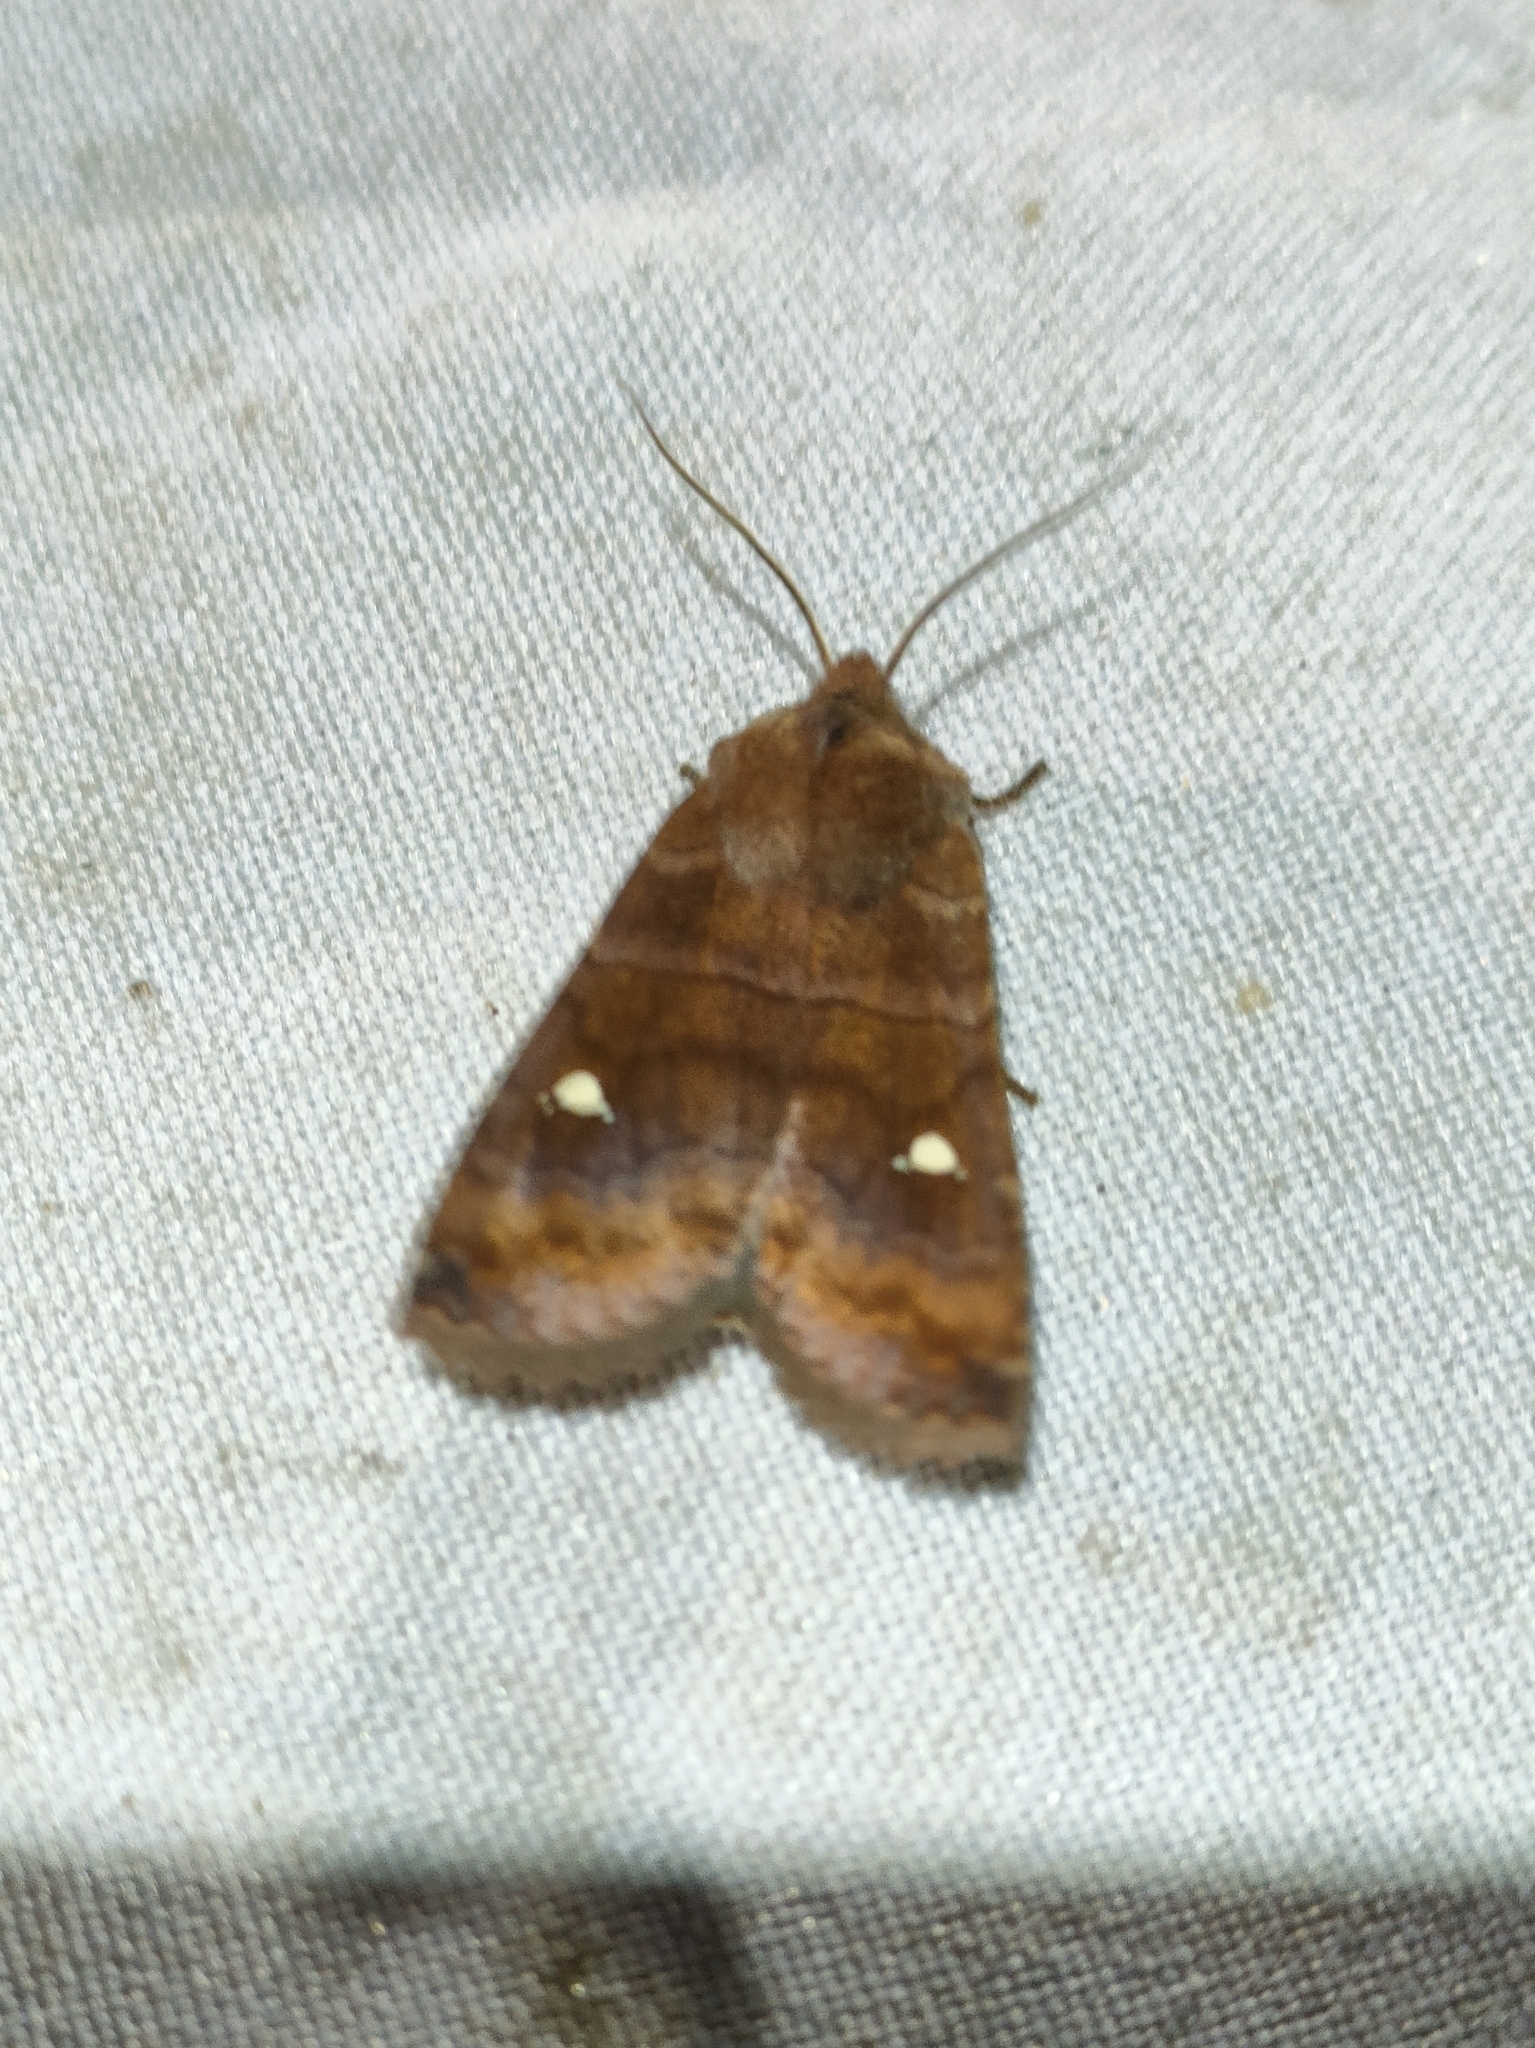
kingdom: Animalia
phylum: Arthropoda
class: Insecta
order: Lepidoptera
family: Noctuidae
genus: Eupsilia
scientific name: Eupsilia transversa
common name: Satellite
